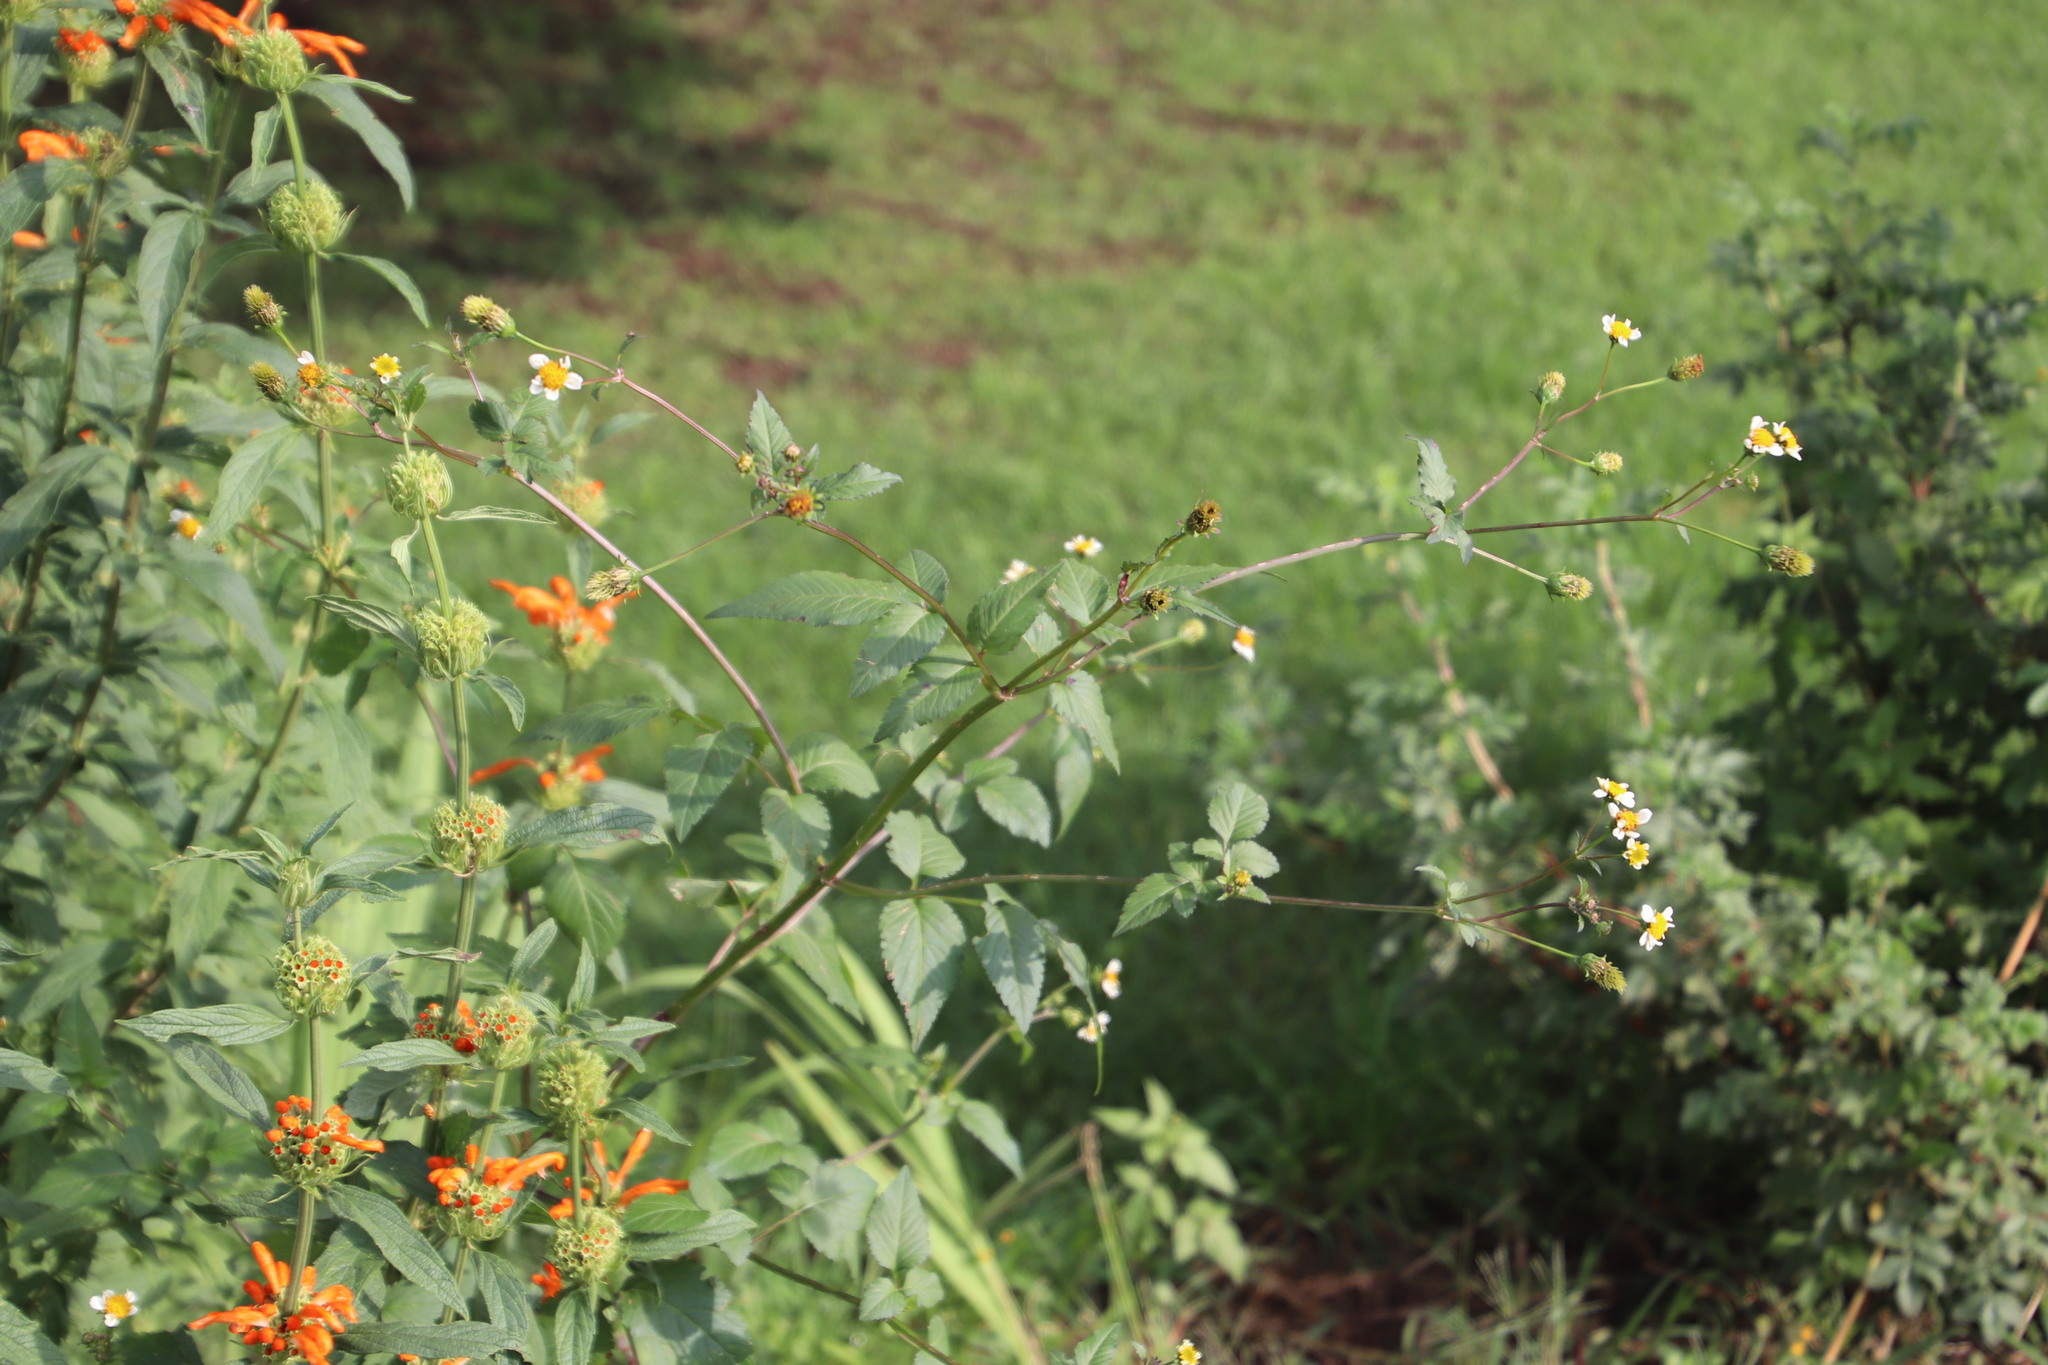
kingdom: Plantae
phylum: Tracheophyta
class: Magnoliopsida
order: Asterales
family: Asteraceae
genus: Bidens
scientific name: Bidens pilosa
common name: Black-jack
